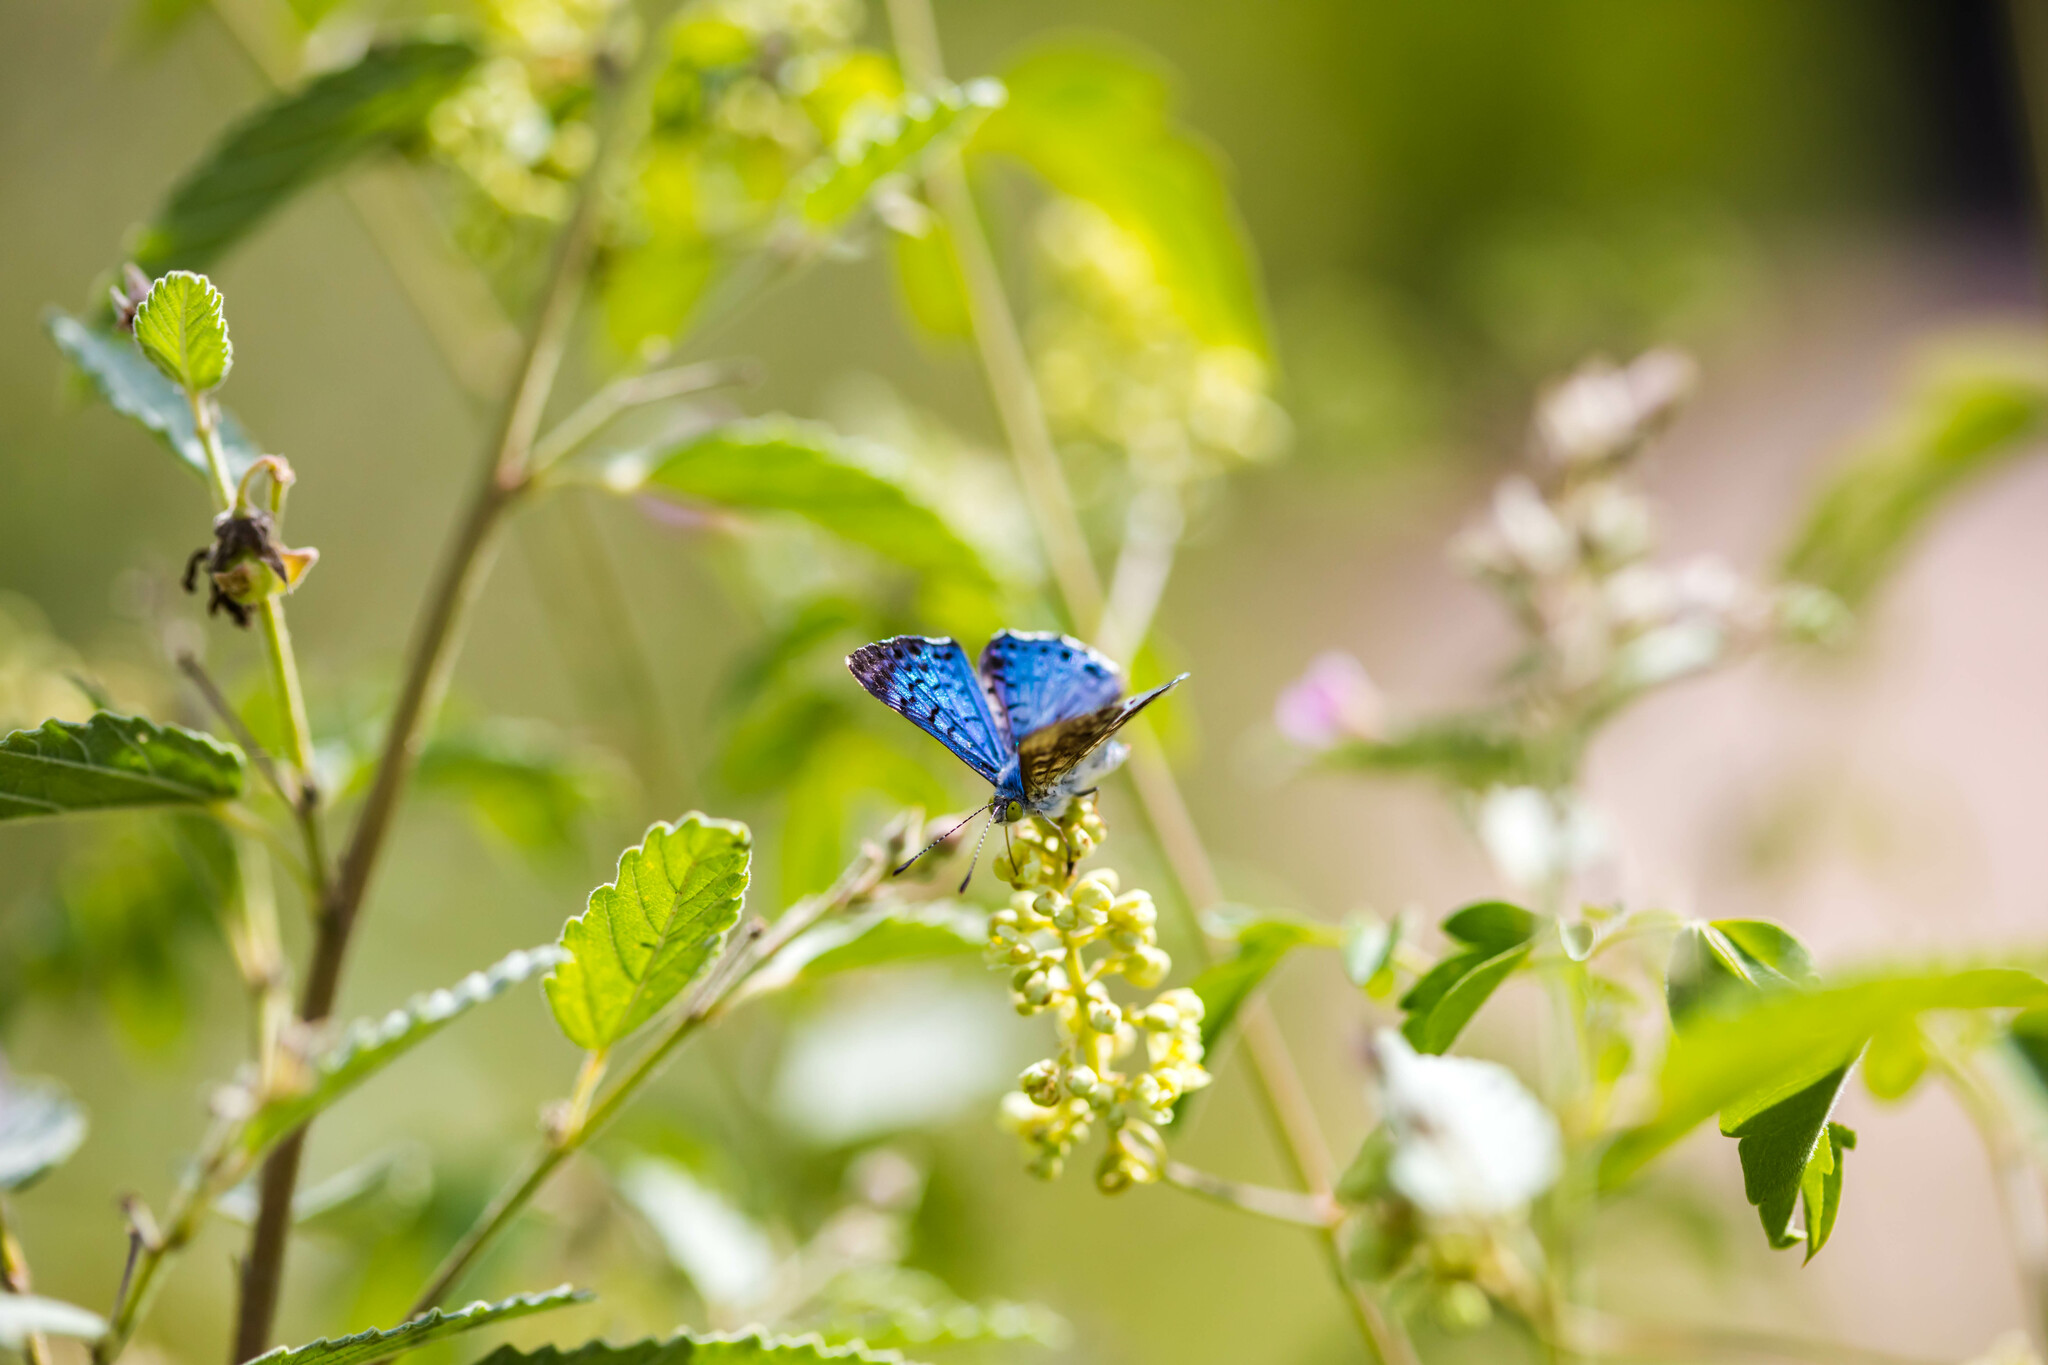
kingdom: Animalia
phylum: Arthropoda
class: Insecta
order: Lepidoptera
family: Riodinidae
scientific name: Riodinidae
